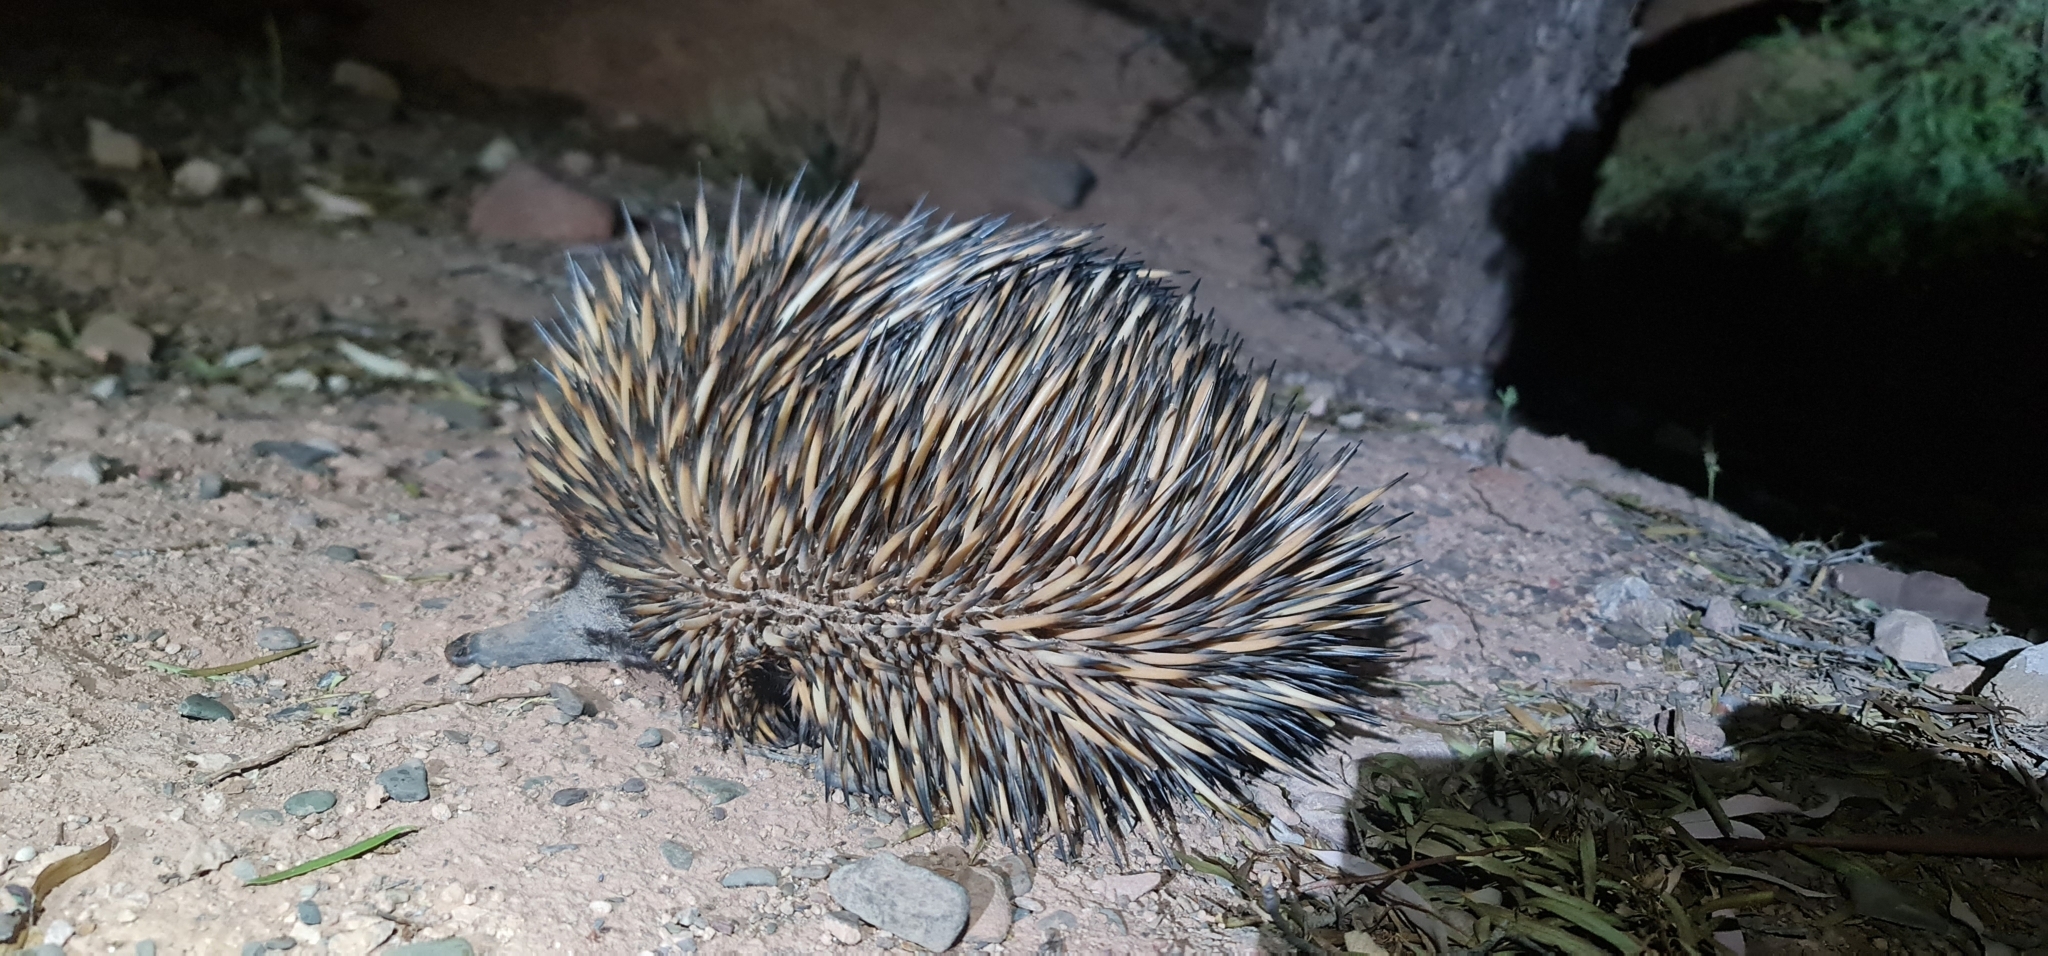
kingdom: Animalia
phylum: Chordata
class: Mammalia
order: Monotremata
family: Tachyglossidae
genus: Tachyglossus
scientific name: Tachyglossus aculeatus
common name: Short-beaked echidna
